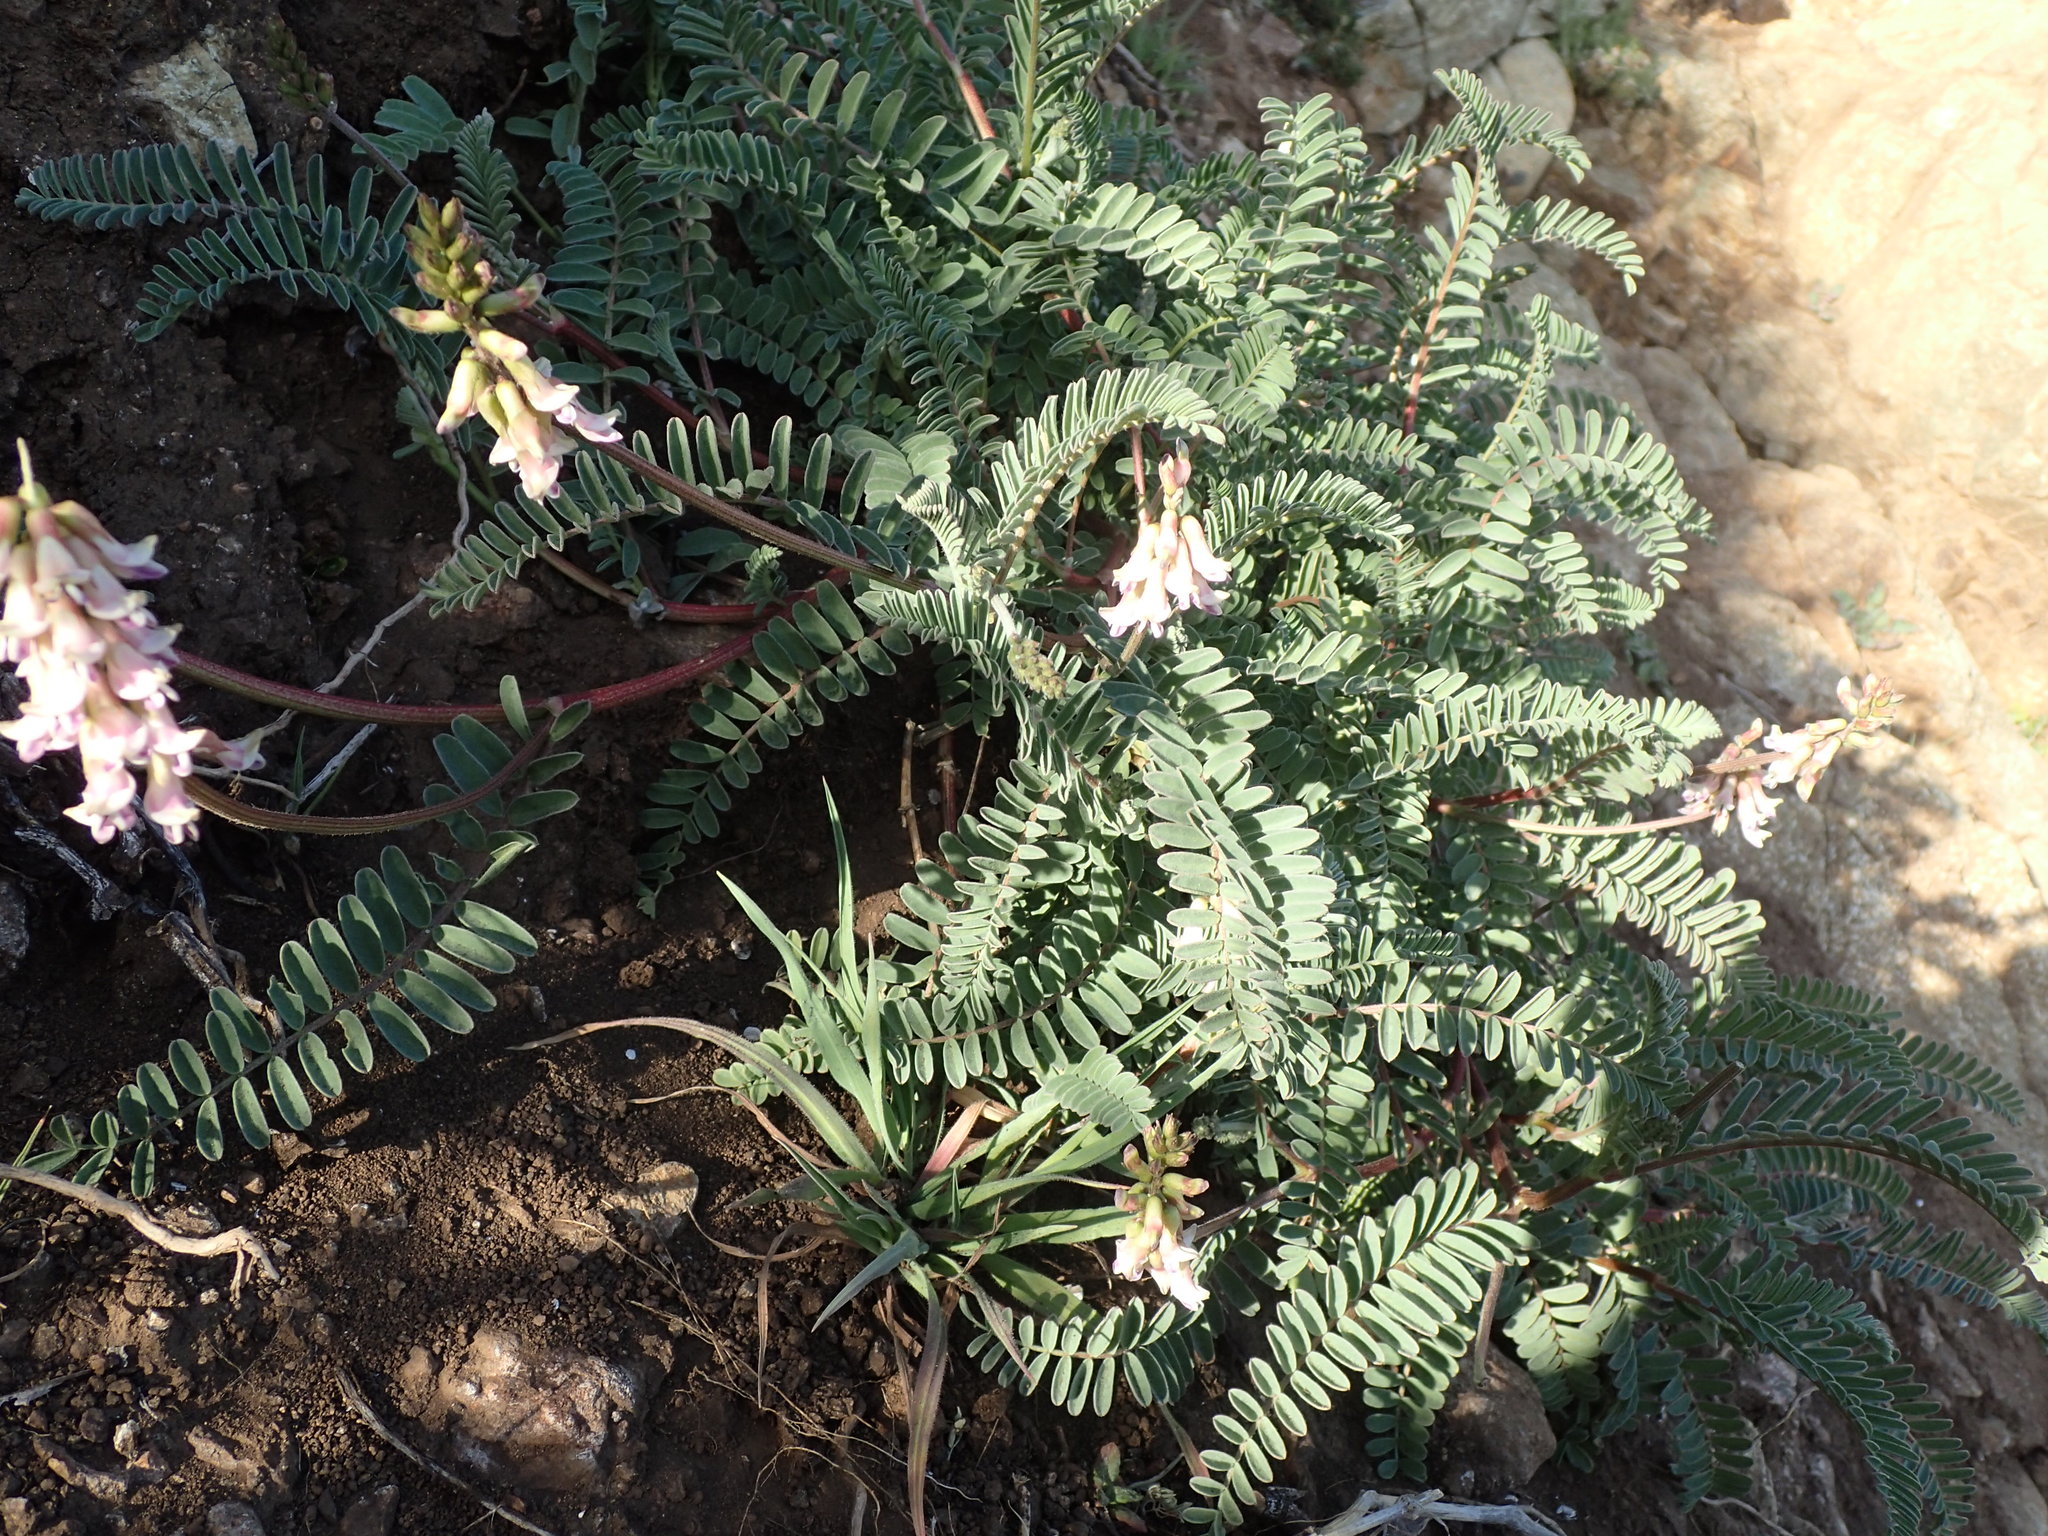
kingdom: Plantae
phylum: Tracheophyta
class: Magnoliopsida
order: Fabales
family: Fabaceae
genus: Astragalus
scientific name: Astragalus nuttallii
